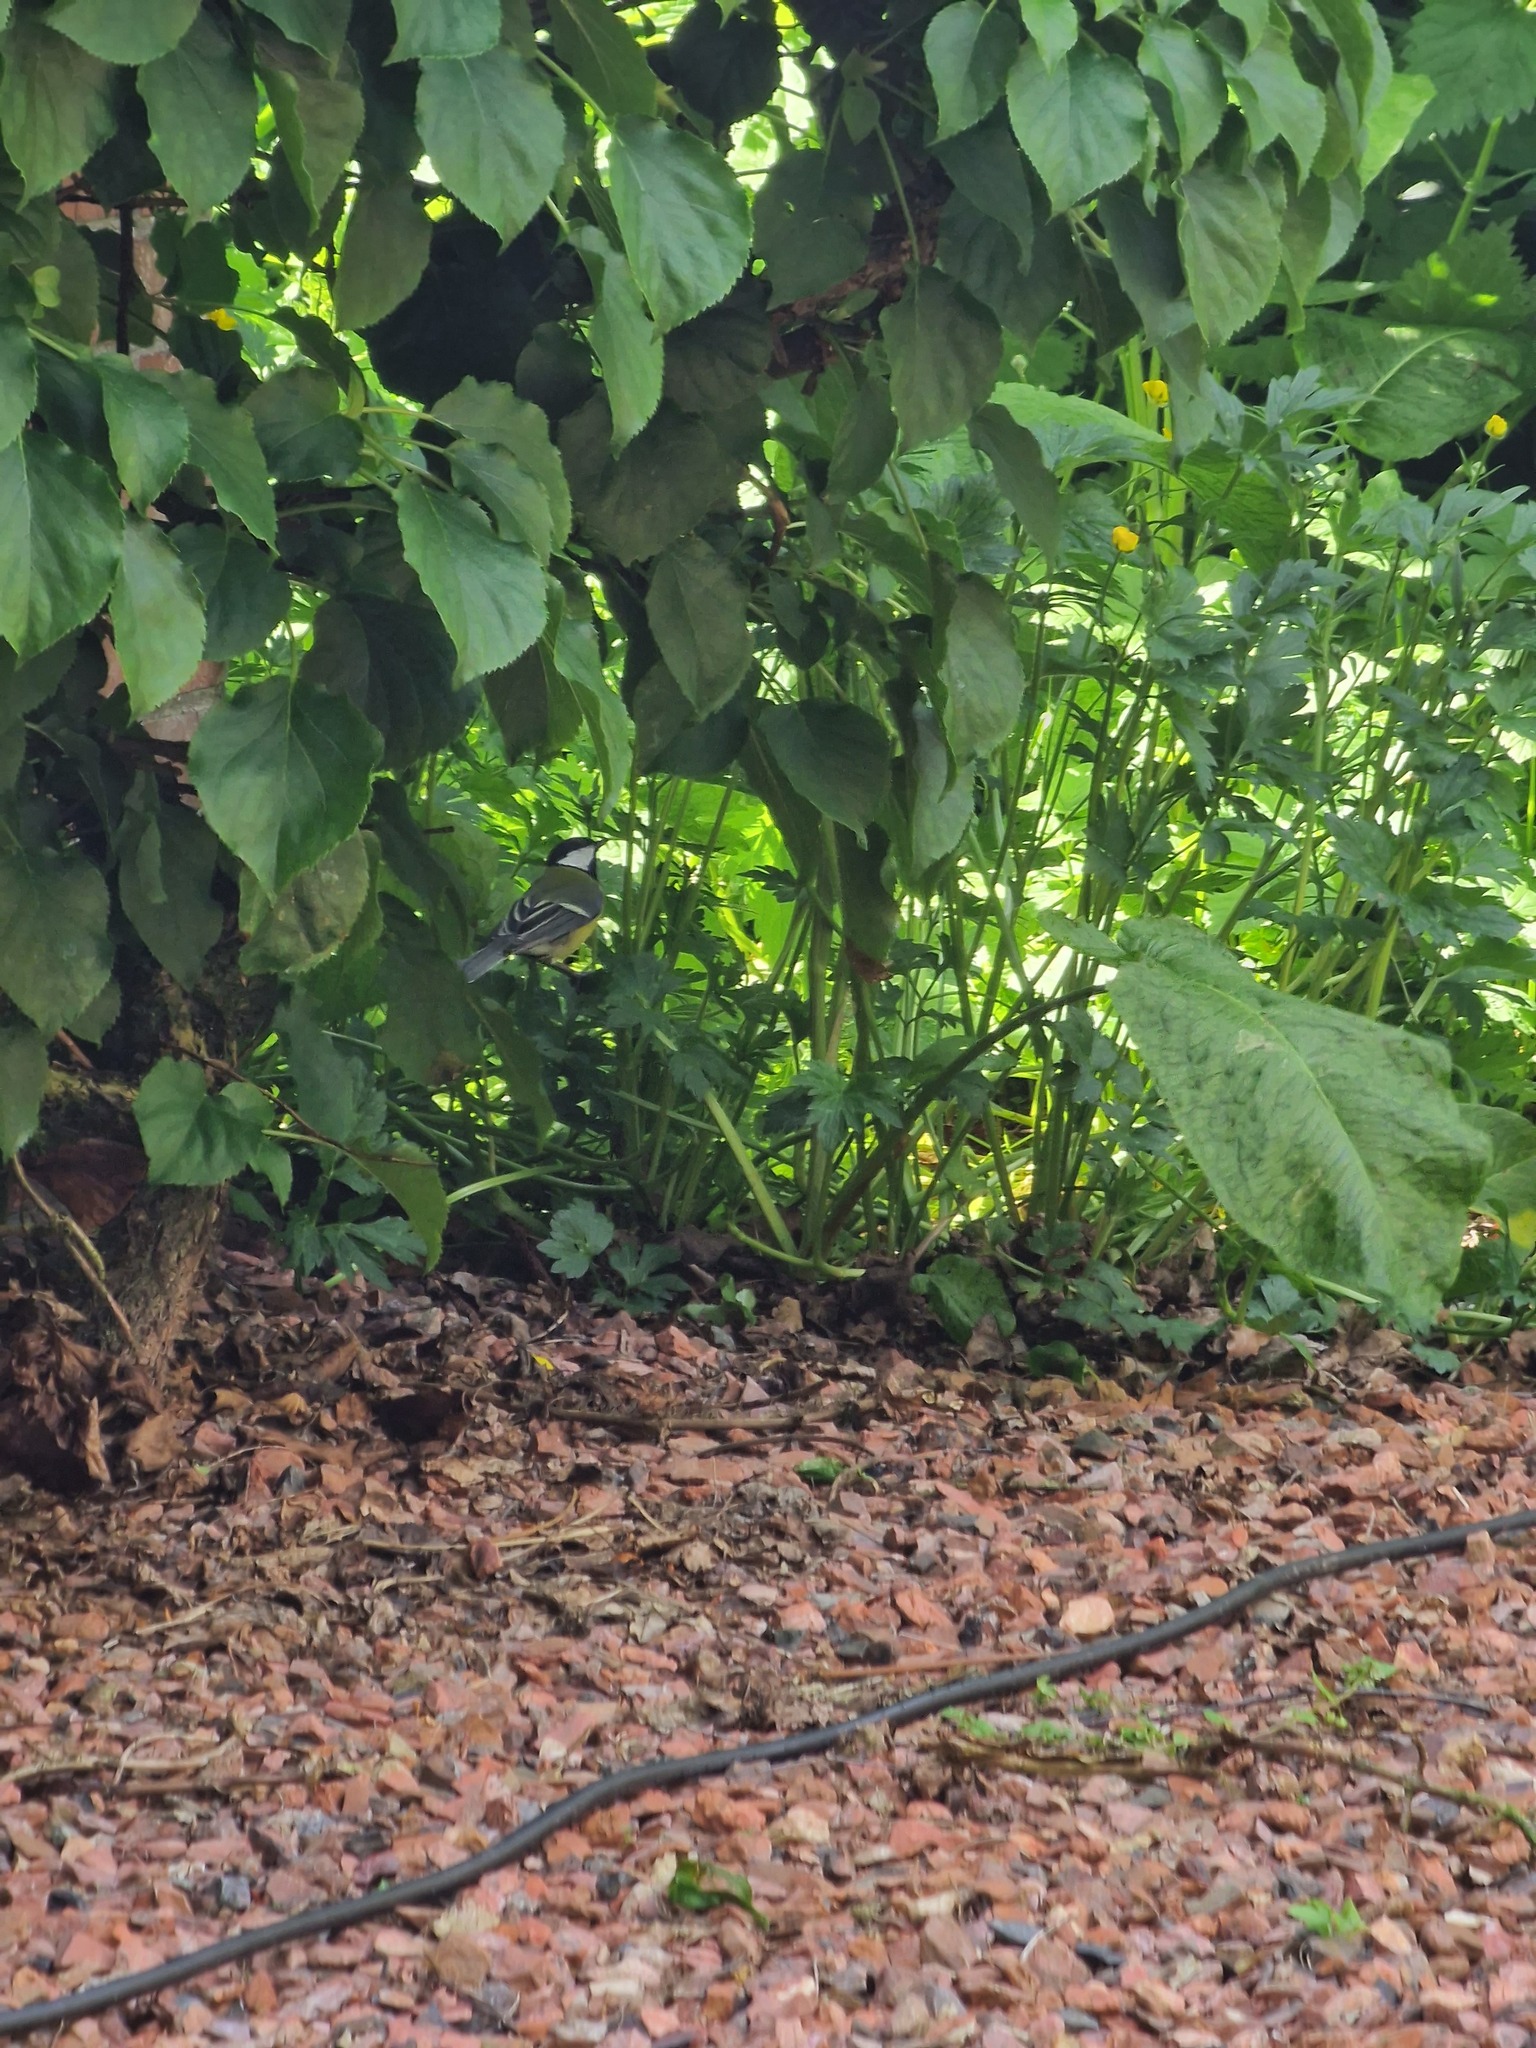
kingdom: Animalia
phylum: Chordata
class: Aves
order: Passeriformes
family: Paridae
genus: Parus
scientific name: Parus major
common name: Great tit
